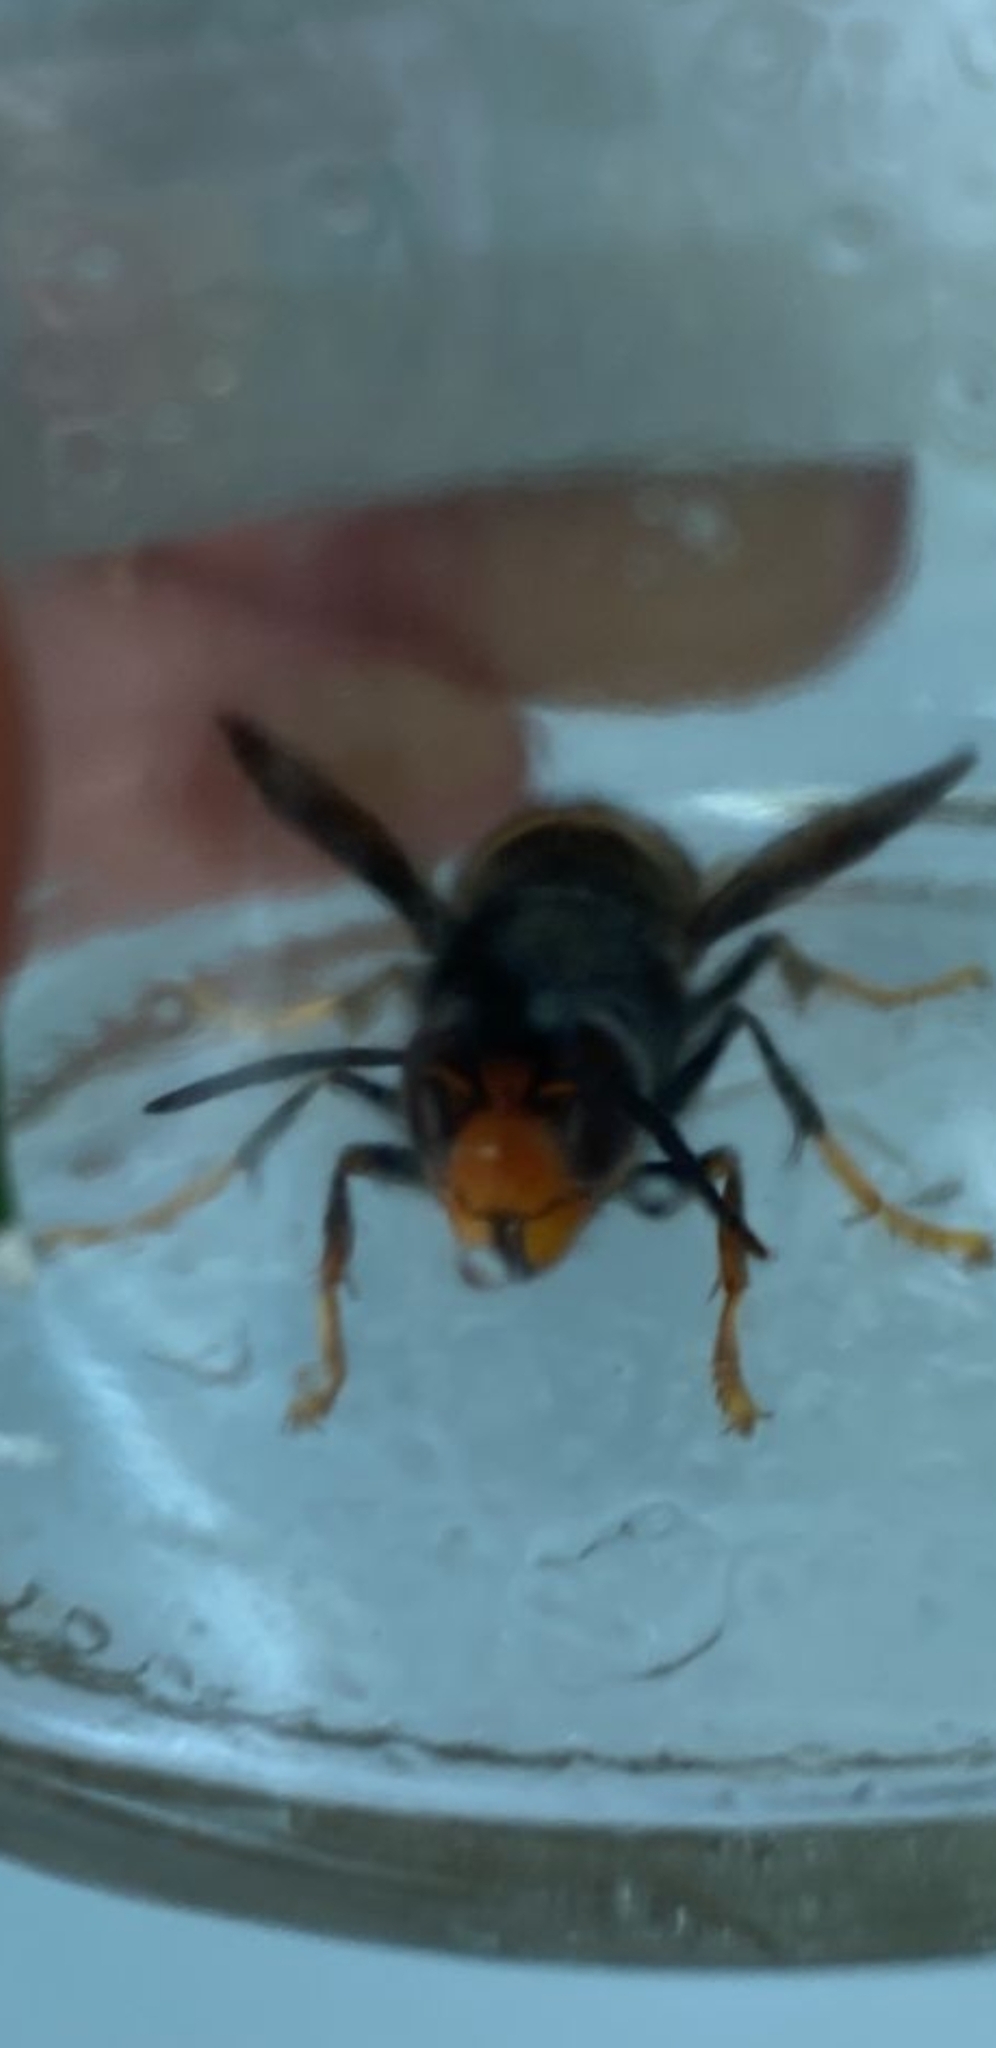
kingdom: Animalia
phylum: Arthropoda
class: Insecta
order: Hymenoptera
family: Vespidae
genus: Vespa
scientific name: Vespa velutina
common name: Asian hornet
